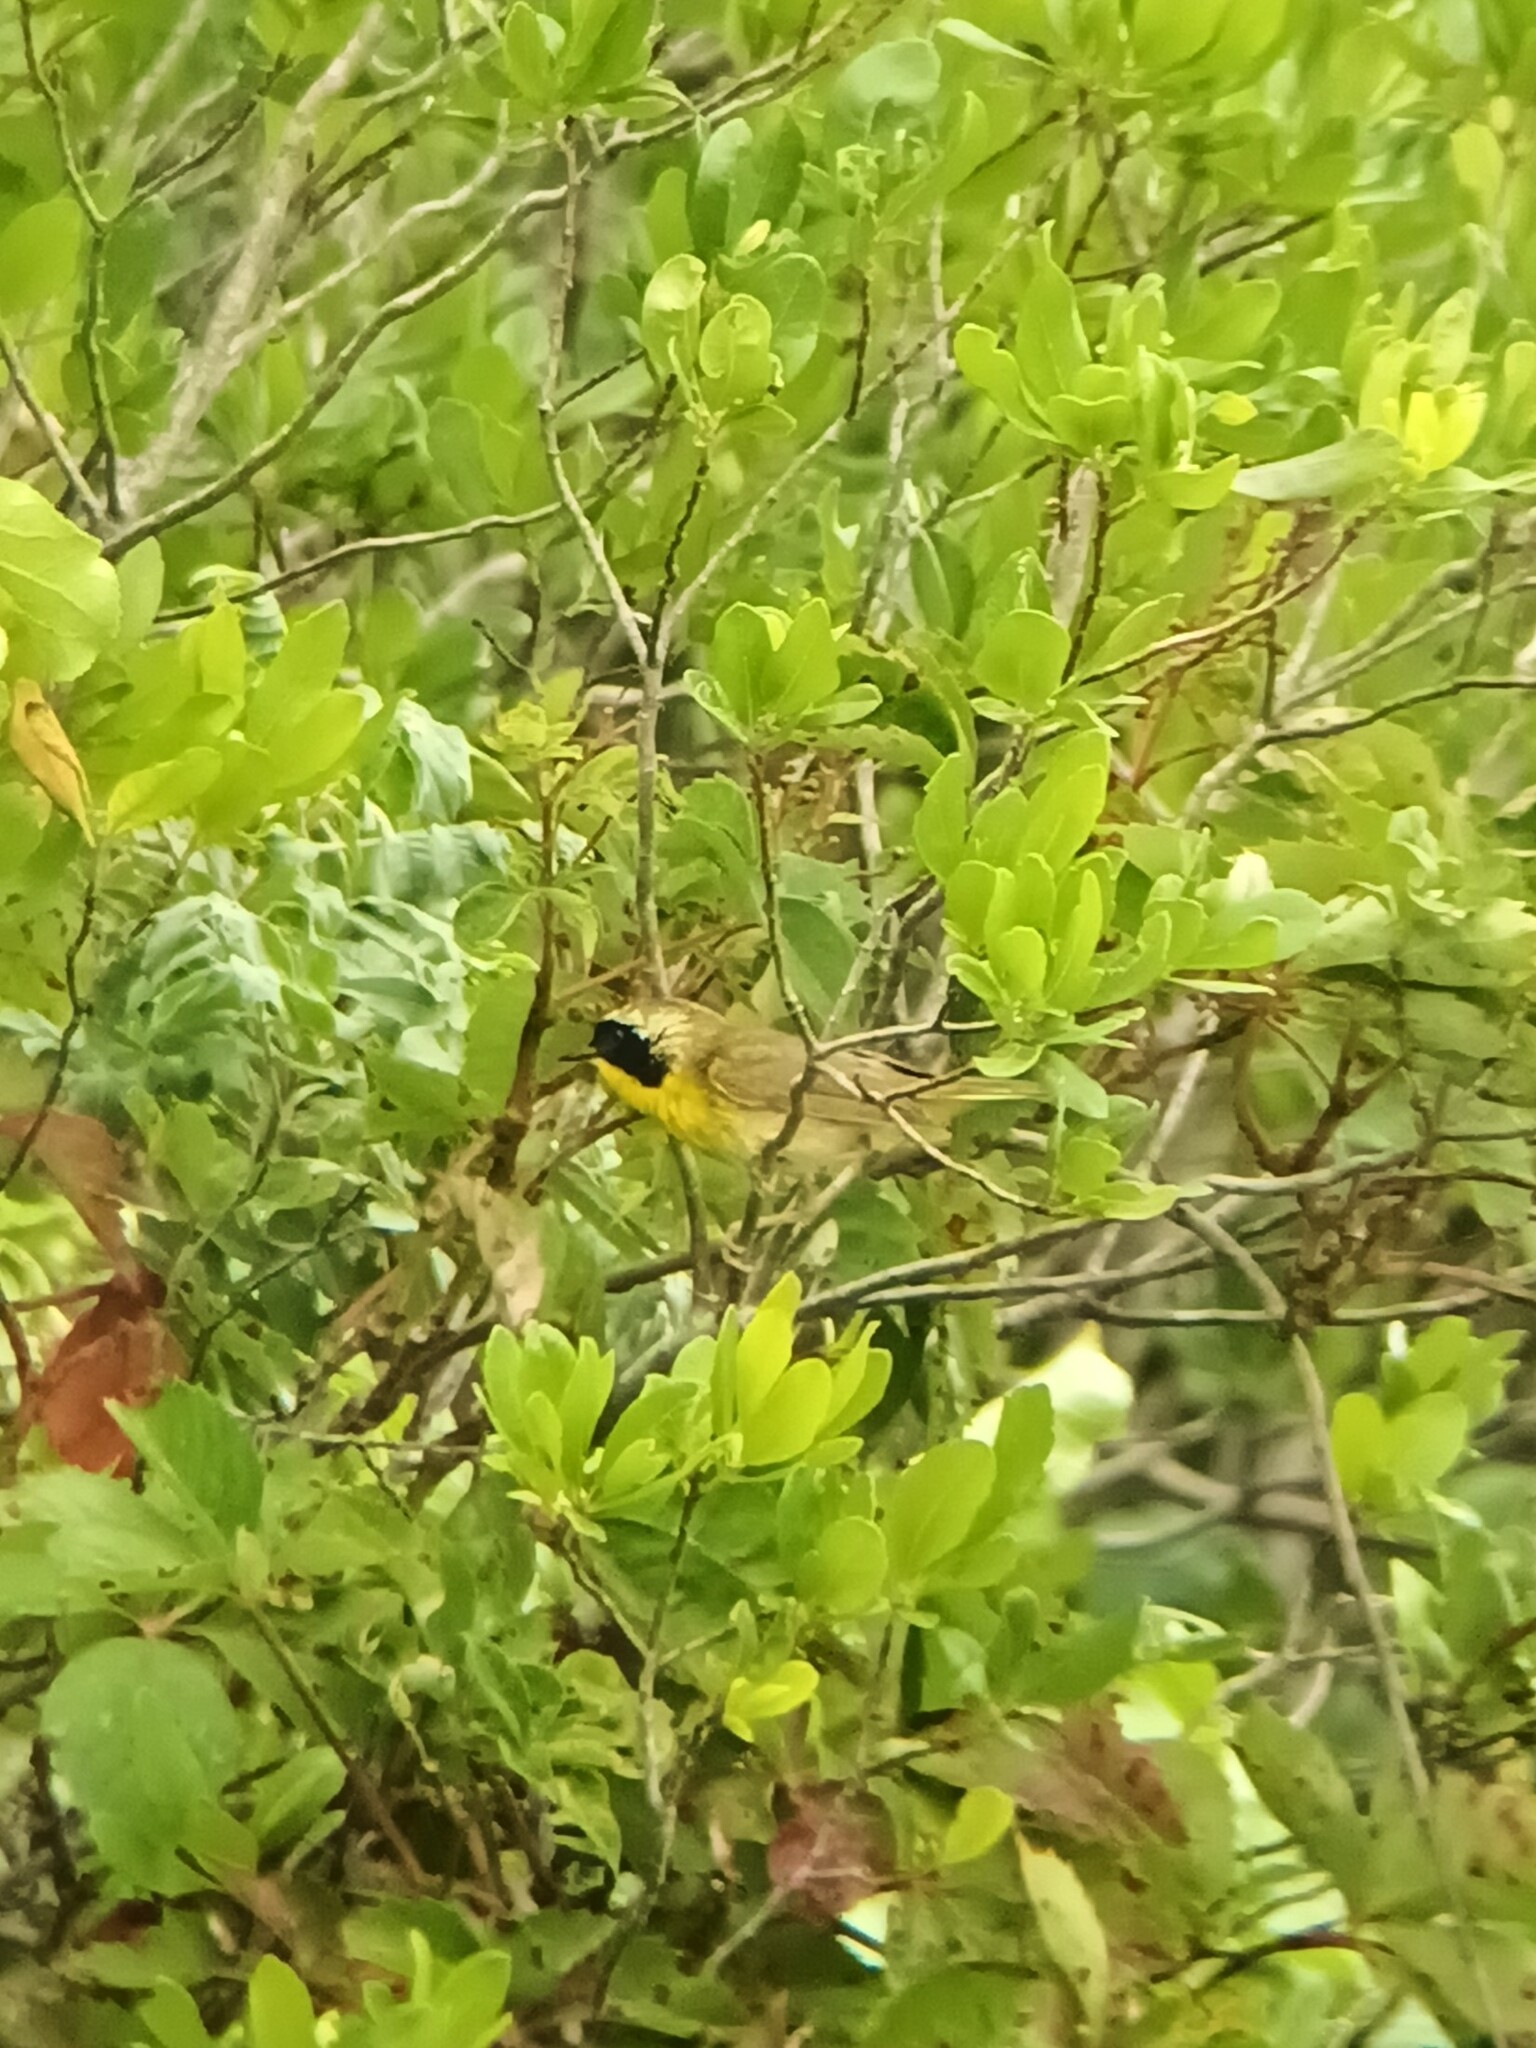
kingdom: Animalia
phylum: Chordata
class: Aves
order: Passeriformes
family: Parulidae
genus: Geothlypis
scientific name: Geothlypis trichas
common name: Common yellowthroat
